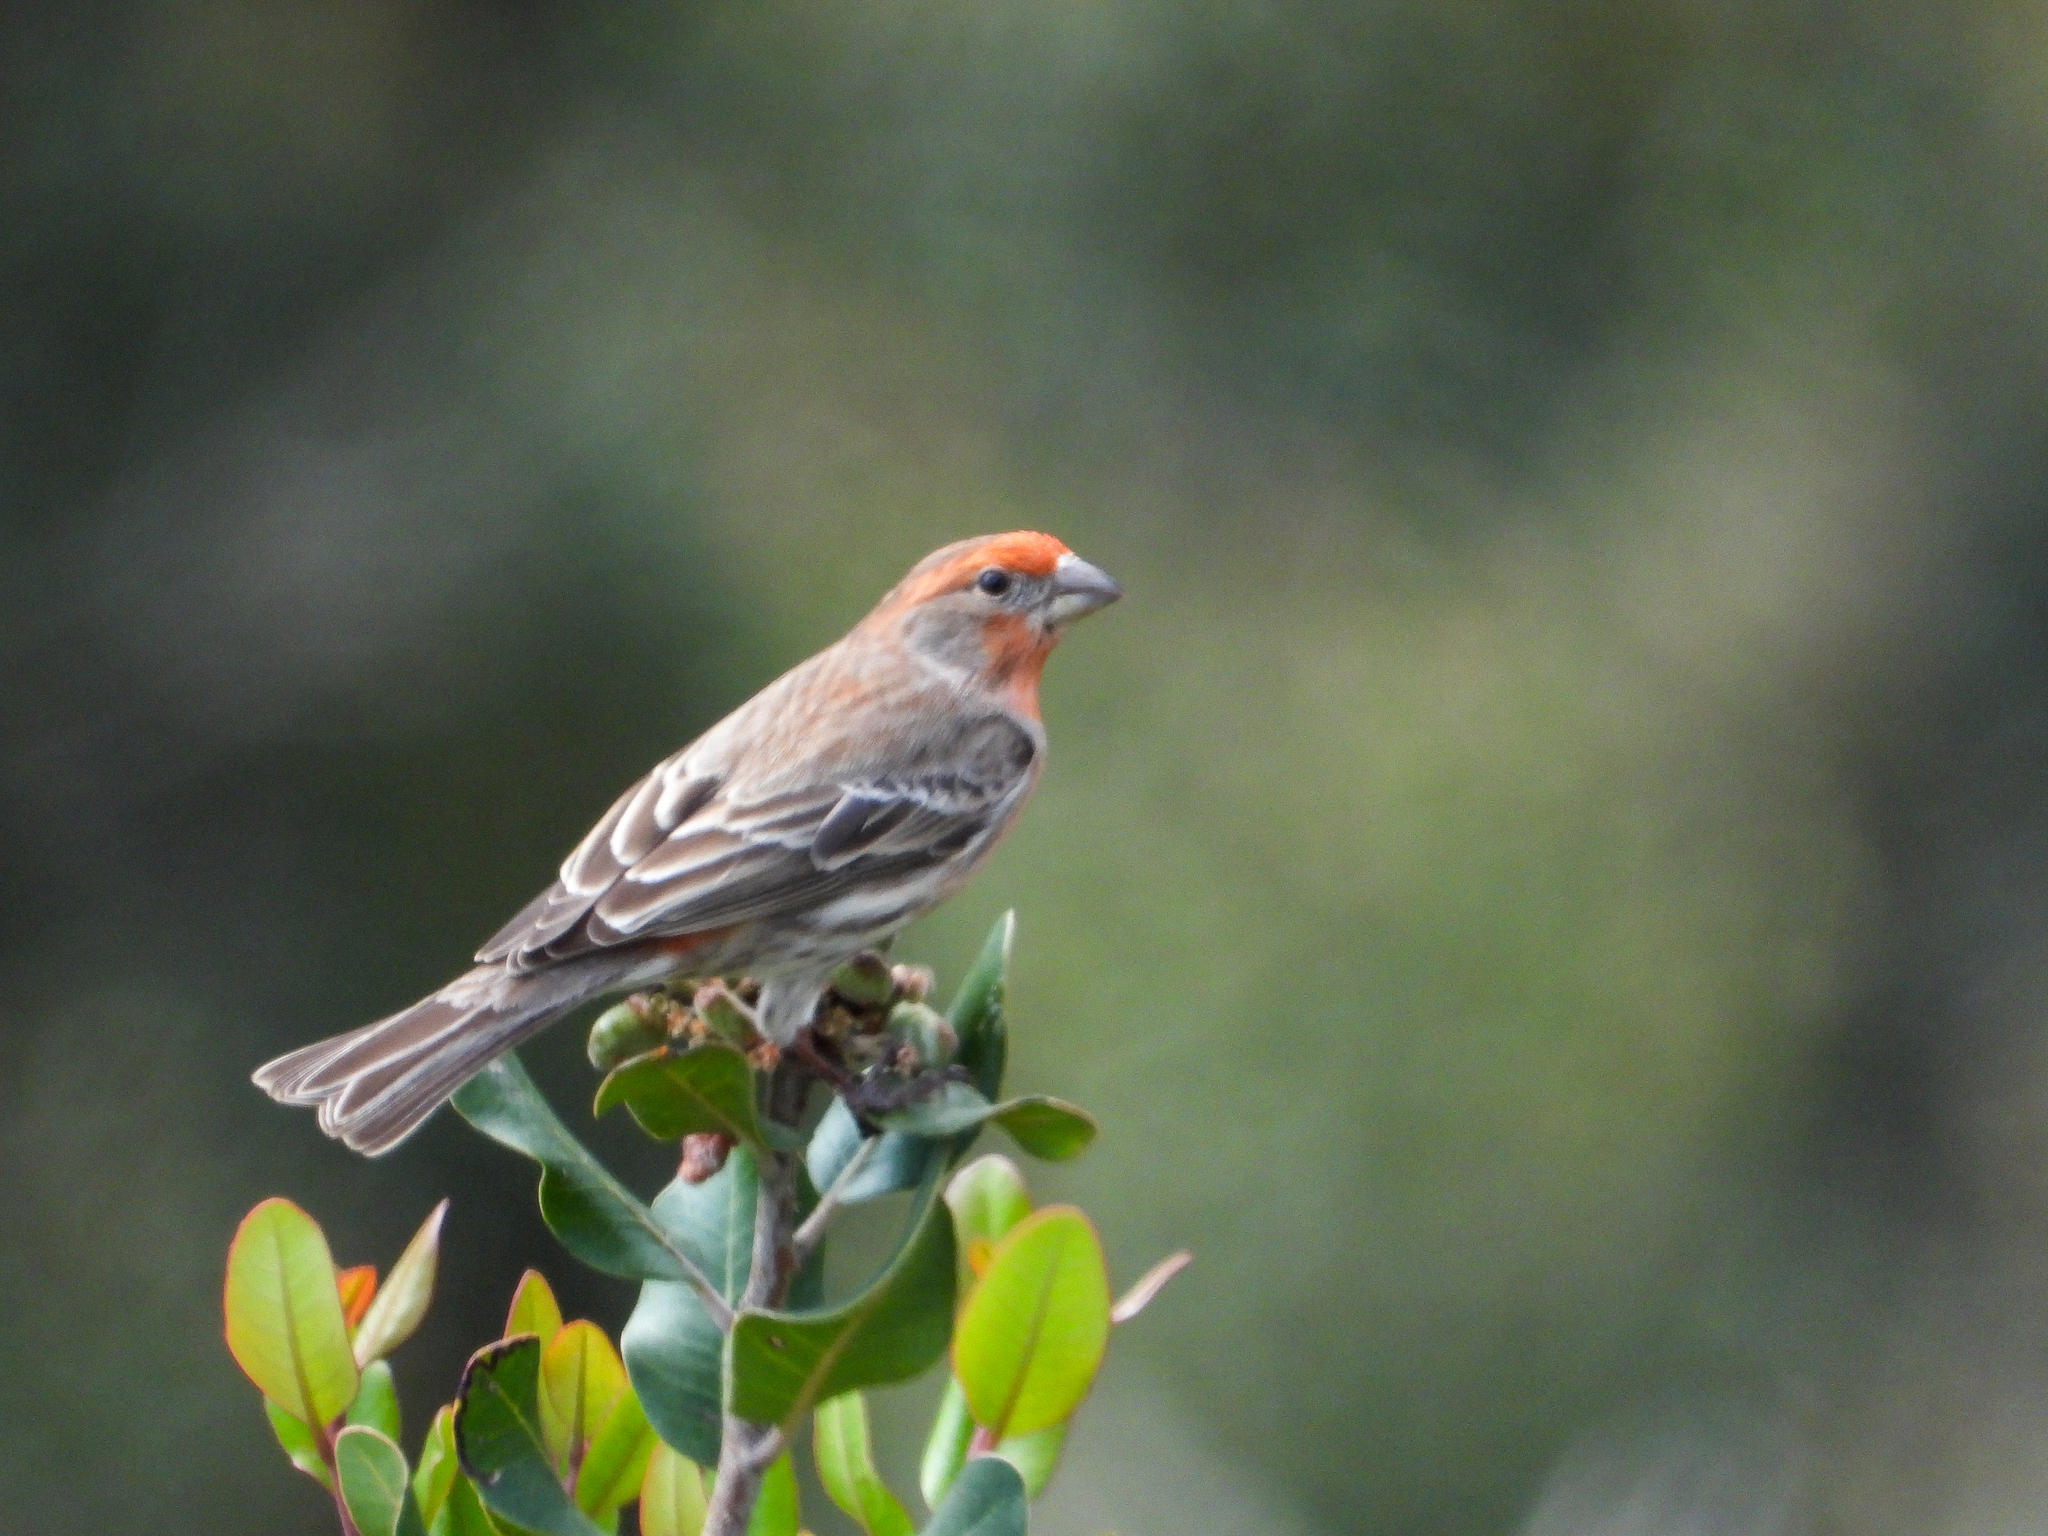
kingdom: Animalia
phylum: Chordata
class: Aves
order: Passeriformes
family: Fringillidae
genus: Haemorhous
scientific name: Haemorhous mexicanus
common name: House finch
